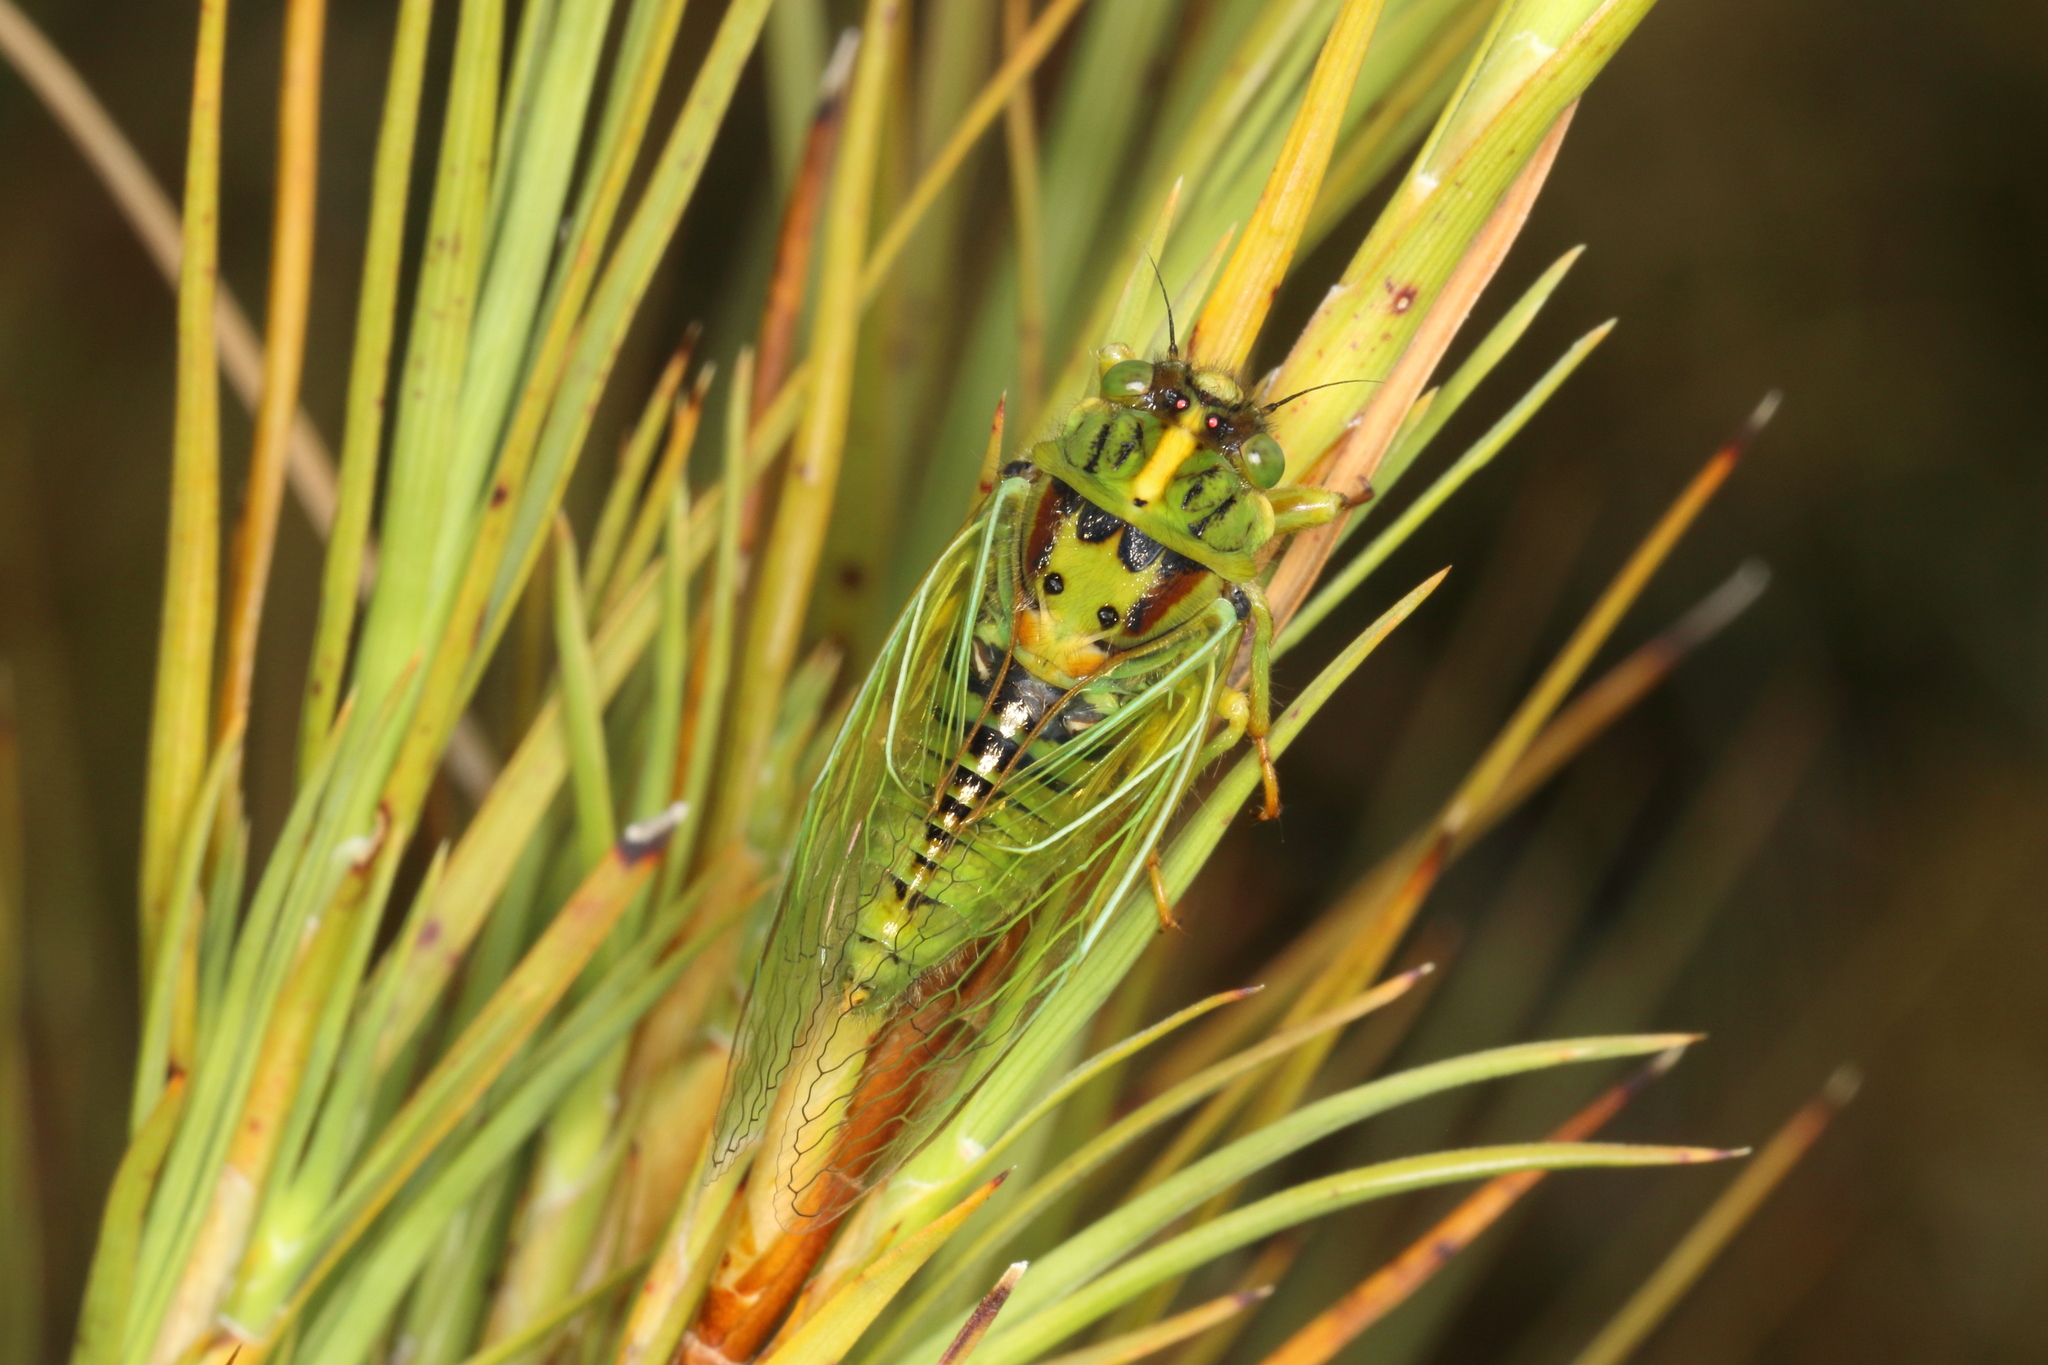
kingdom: Animalia
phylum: Arthropoda
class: Insecta
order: Hemiptera
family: Cicadidae
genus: Kikihia
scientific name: Kikihia horologium
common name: Clock cicada
